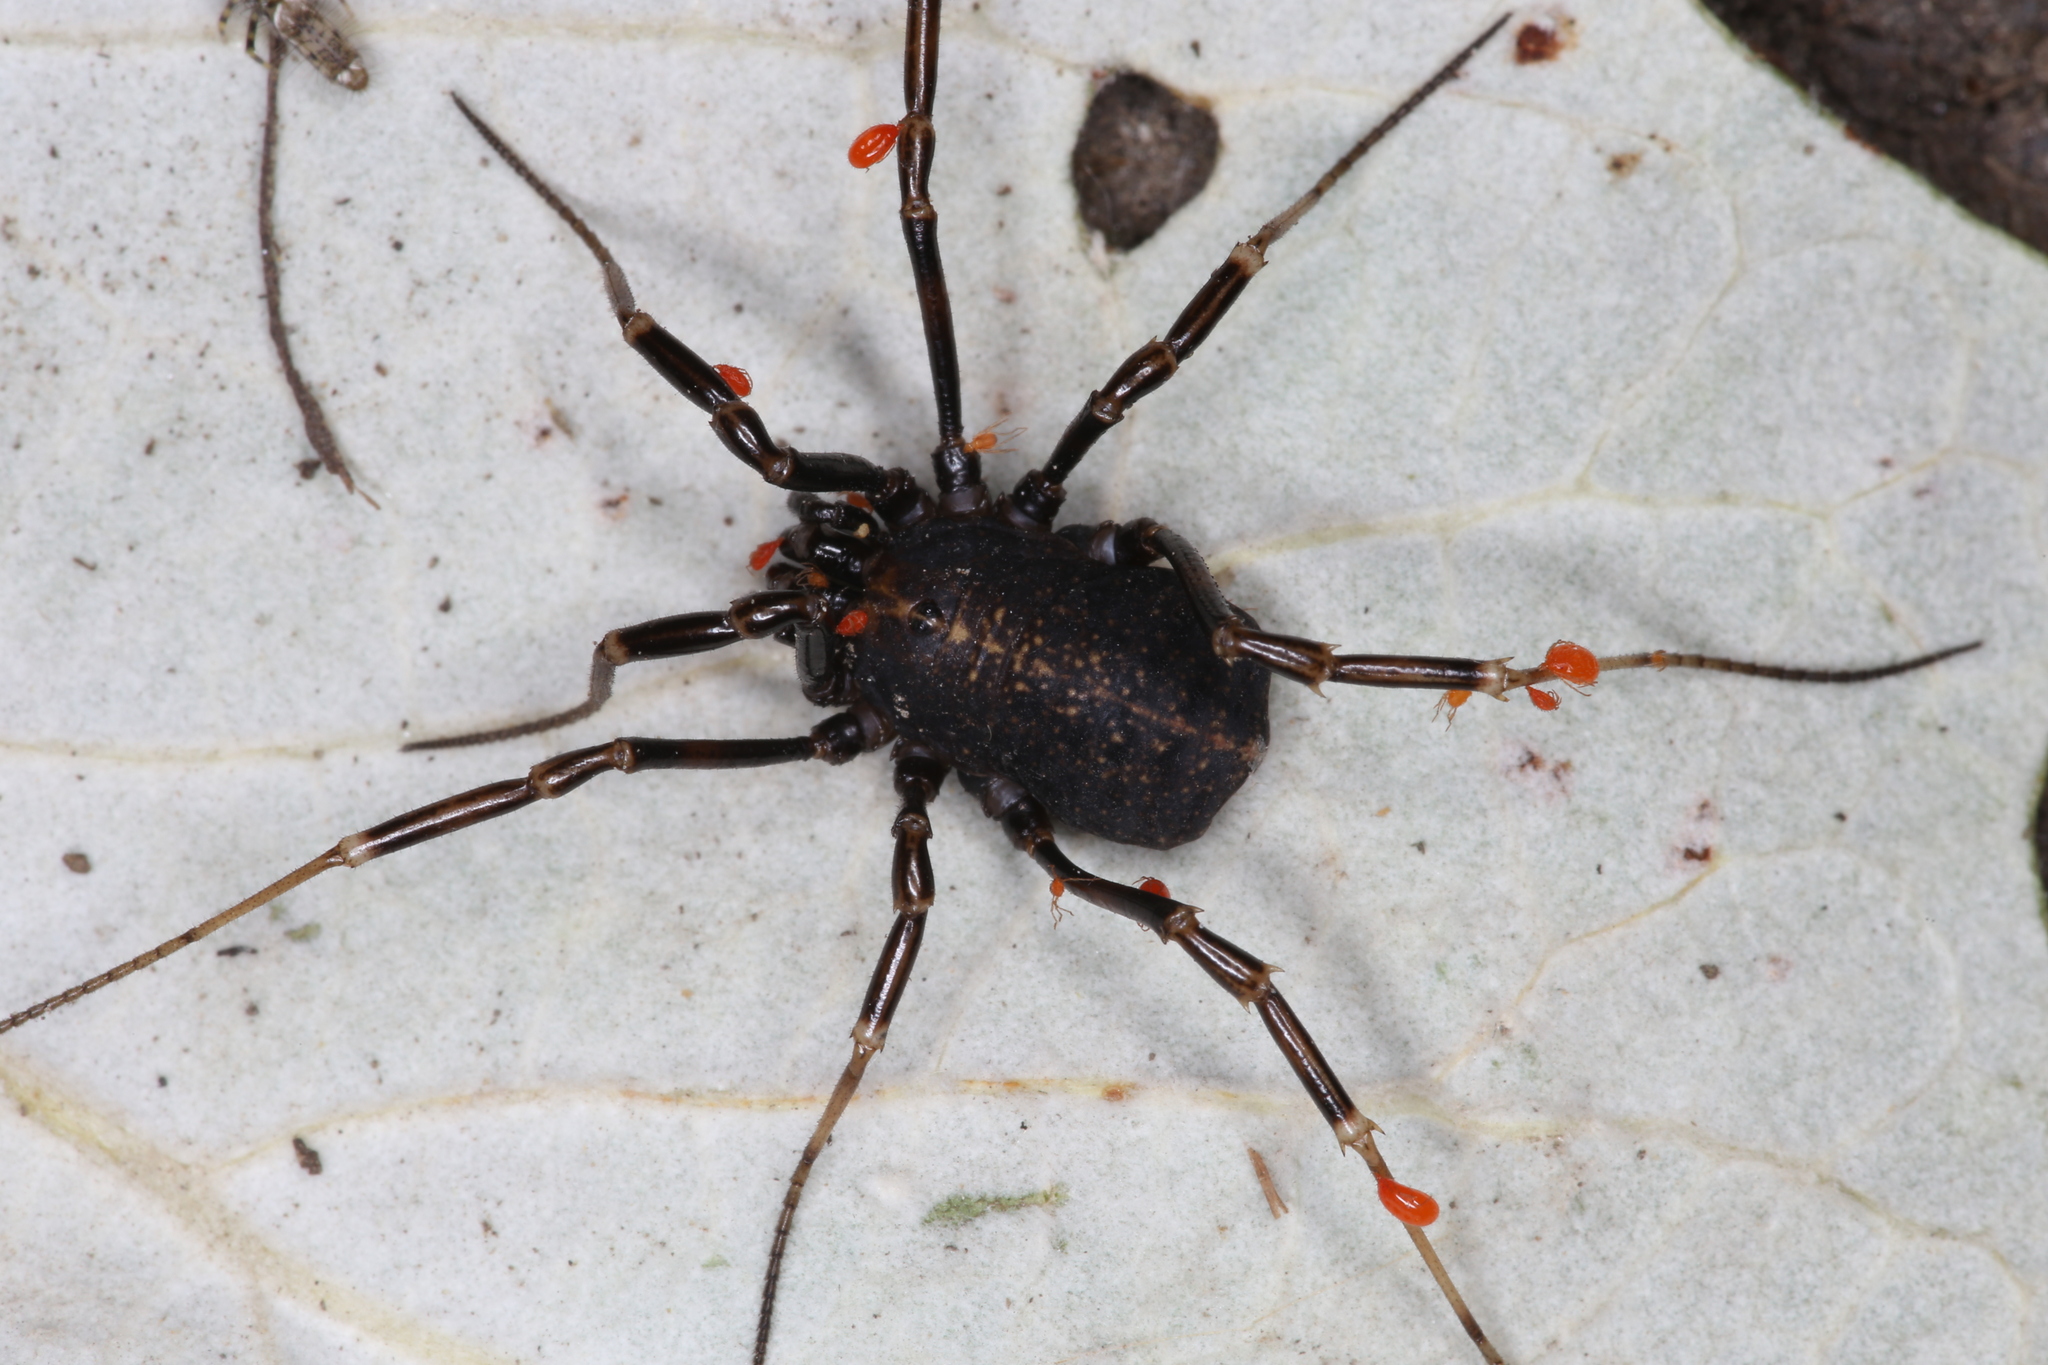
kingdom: Animalia
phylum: Arthropoda
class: Arachnida
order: Opiliones
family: Phalangiidae
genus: Egaenus
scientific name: Egaenus convexus
